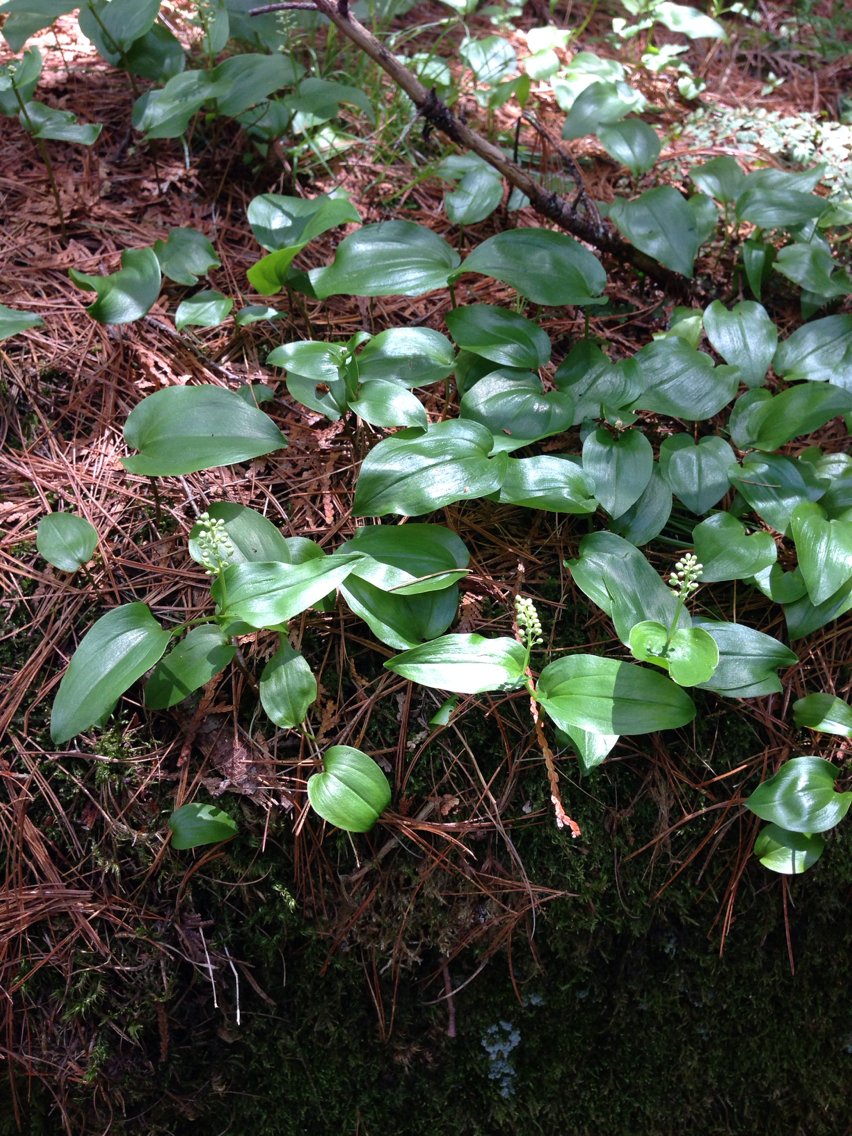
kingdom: Plantae
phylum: Tracheophyta
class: Liliopsida
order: Asparagales
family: Asparagaceae
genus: Maianthemum
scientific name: Maianthemum canadense
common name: False lily-of-the-valley
